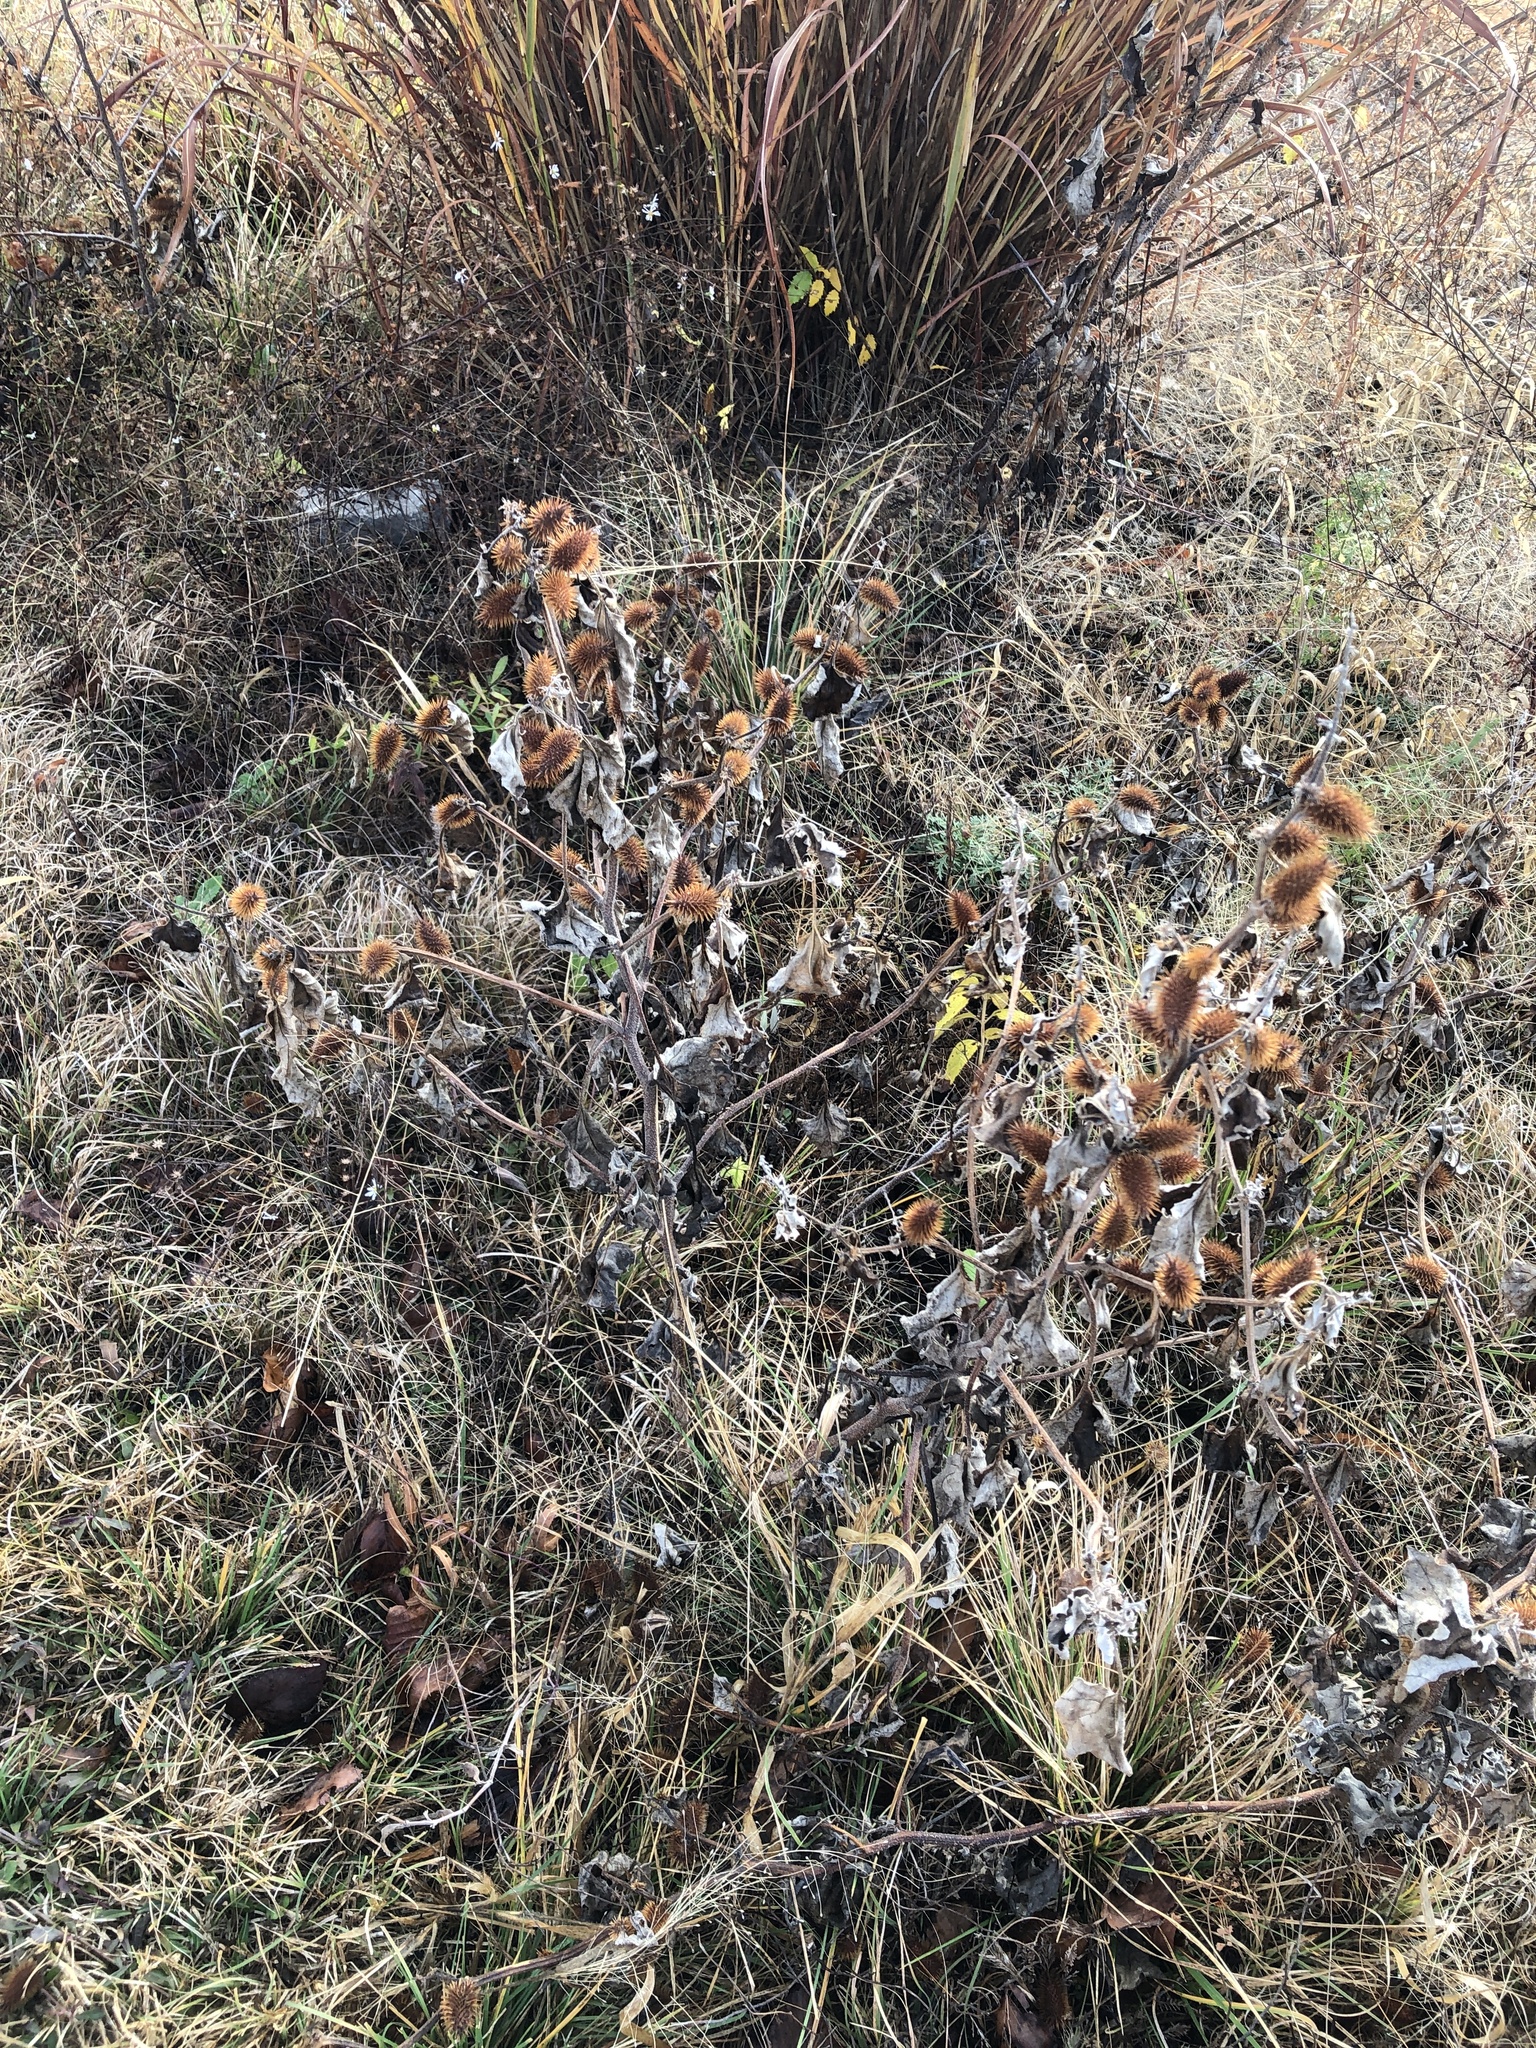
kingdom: Plantae
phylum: Tracheophyta
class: Magnoliopsida
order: Asterales
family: Asteraceae
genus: Xanthium
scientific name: Xanthium strumarium
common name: Rough cocklebur
